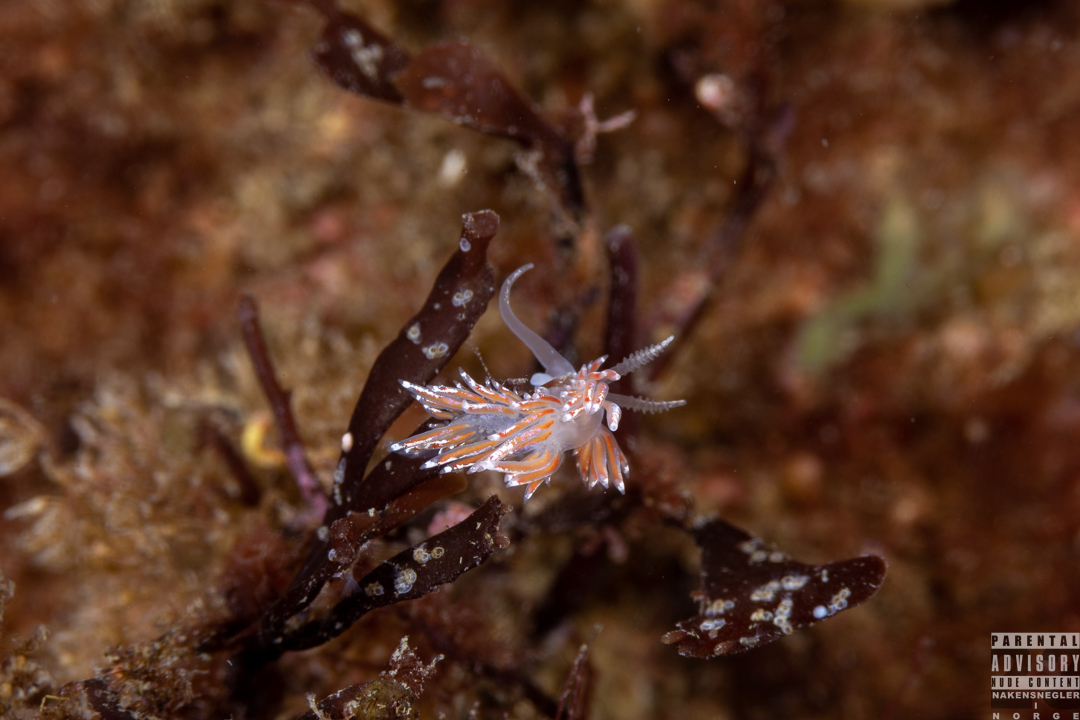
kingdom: Animalia
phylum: Mollusca
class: Gastropoda
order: Nudibranchia
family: Facelinidae
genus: Facelina
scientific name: Facelina auriculata
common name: Slender facelina
